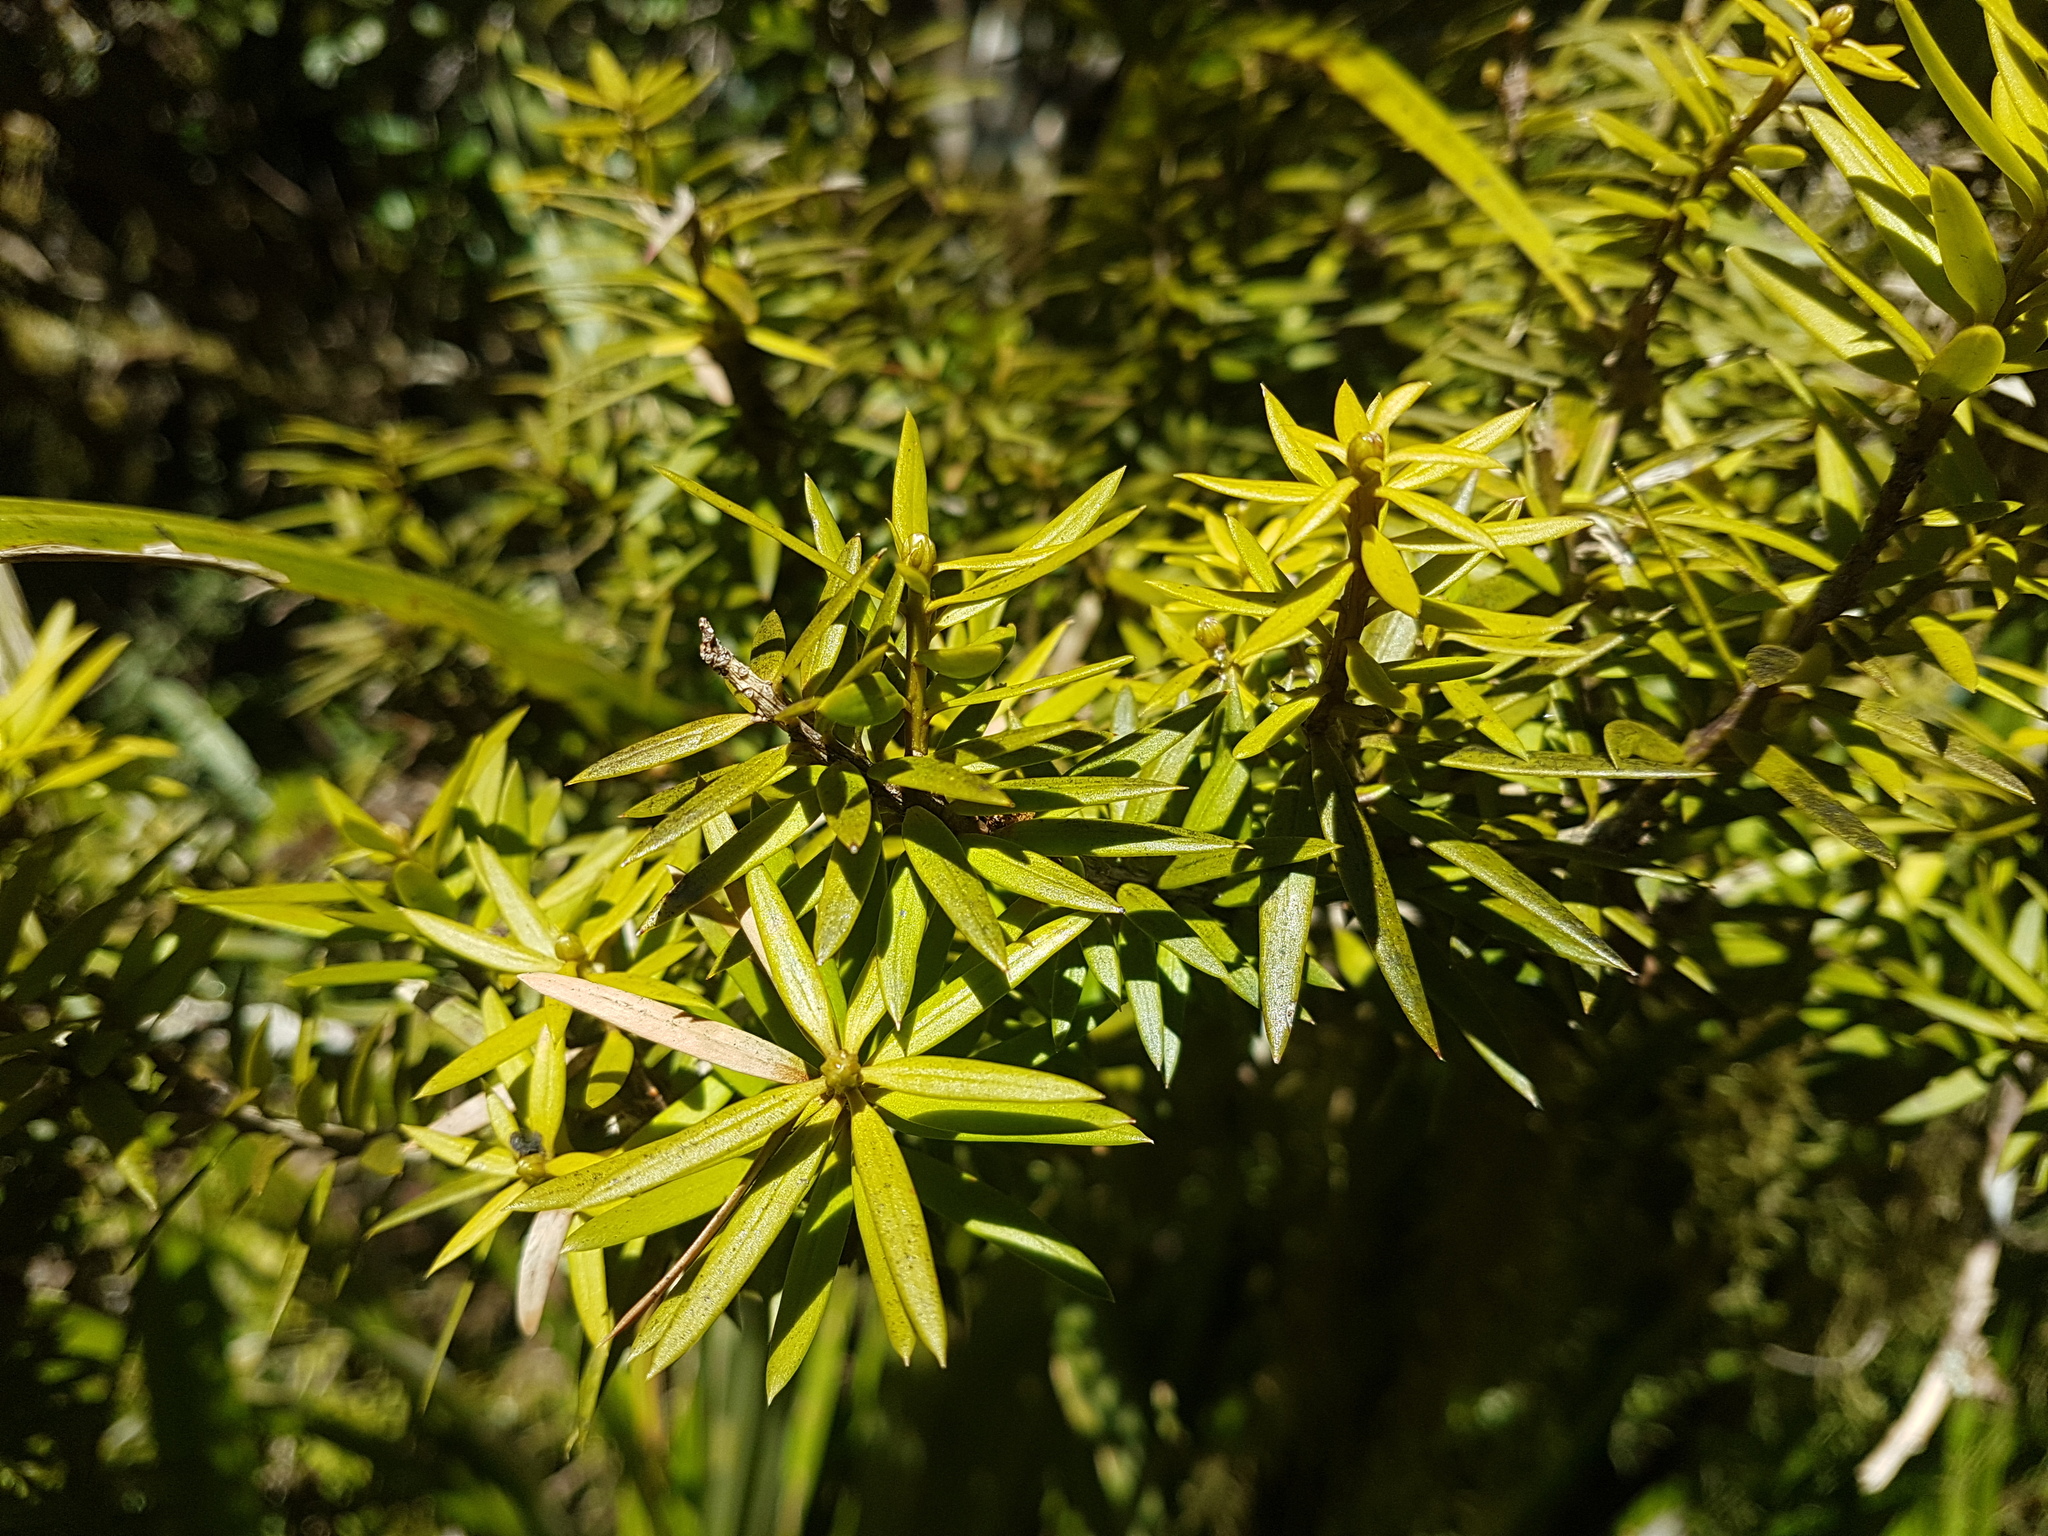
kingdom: Plantae
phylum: Tracheophyta
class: Pinopsida
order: Pinales
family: Podocarpaceae
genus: Podocarpus
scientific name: Podocarpus laetus
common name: Hall's totara
